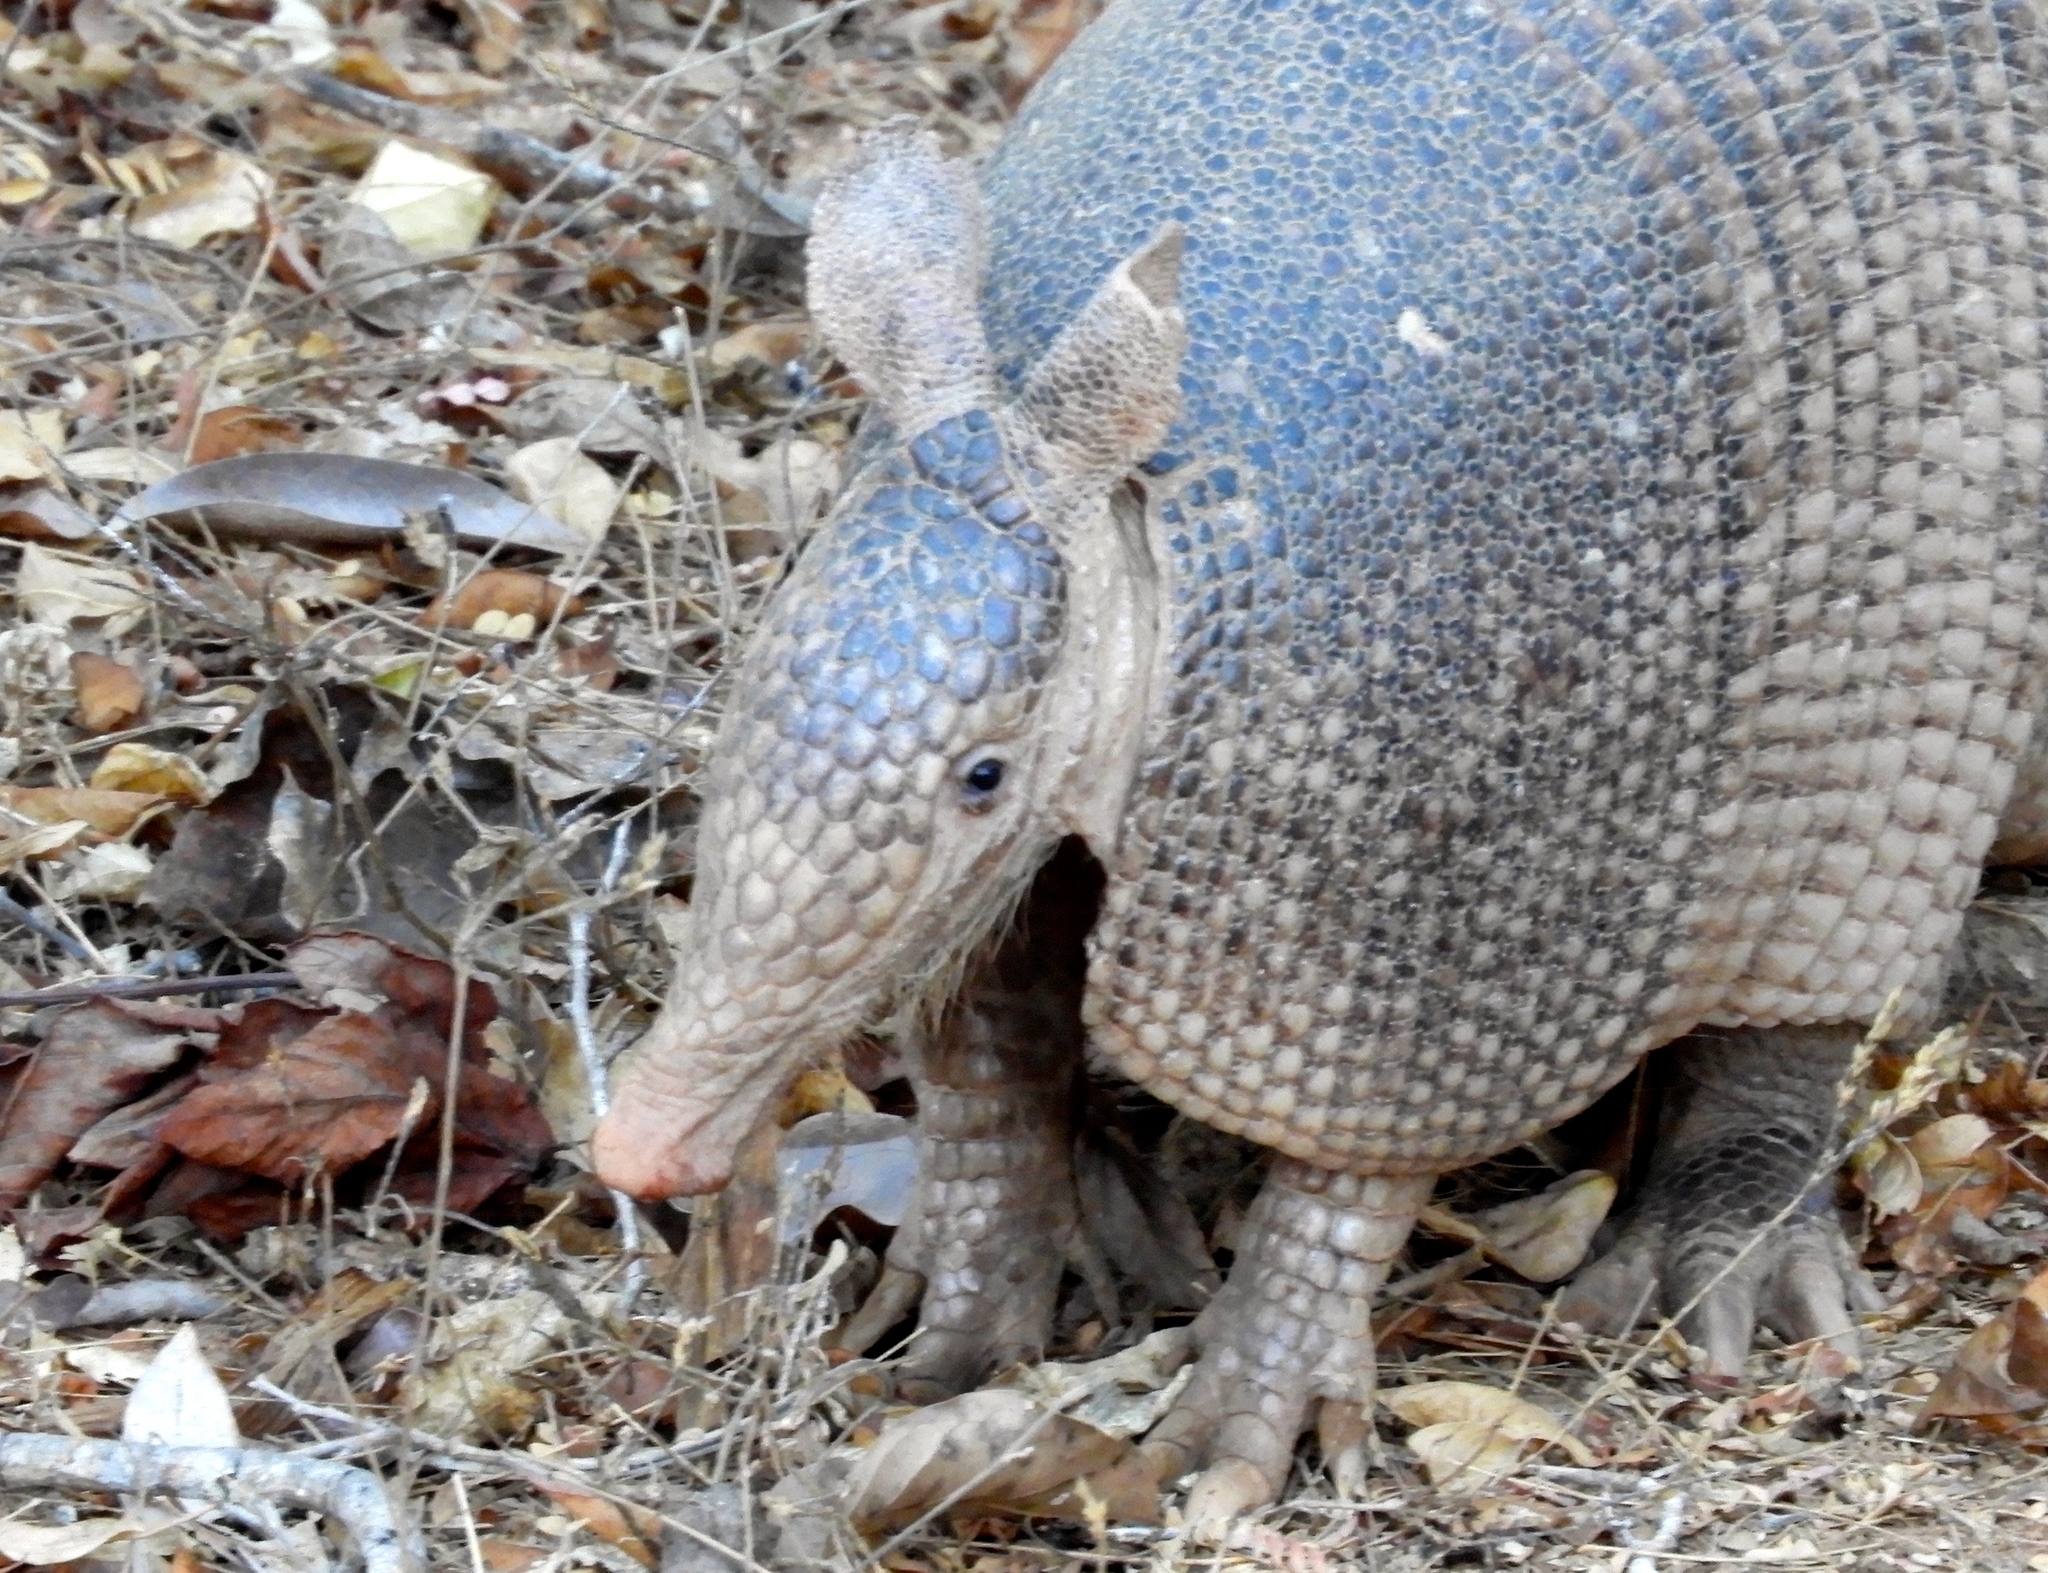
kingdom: Animalia
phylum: Chordata
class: Mammalia
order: Cingulata
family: Dasypodidae
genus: Dasypus
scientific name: Dasypus novemcinctus
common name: Nine-banded armadillo
